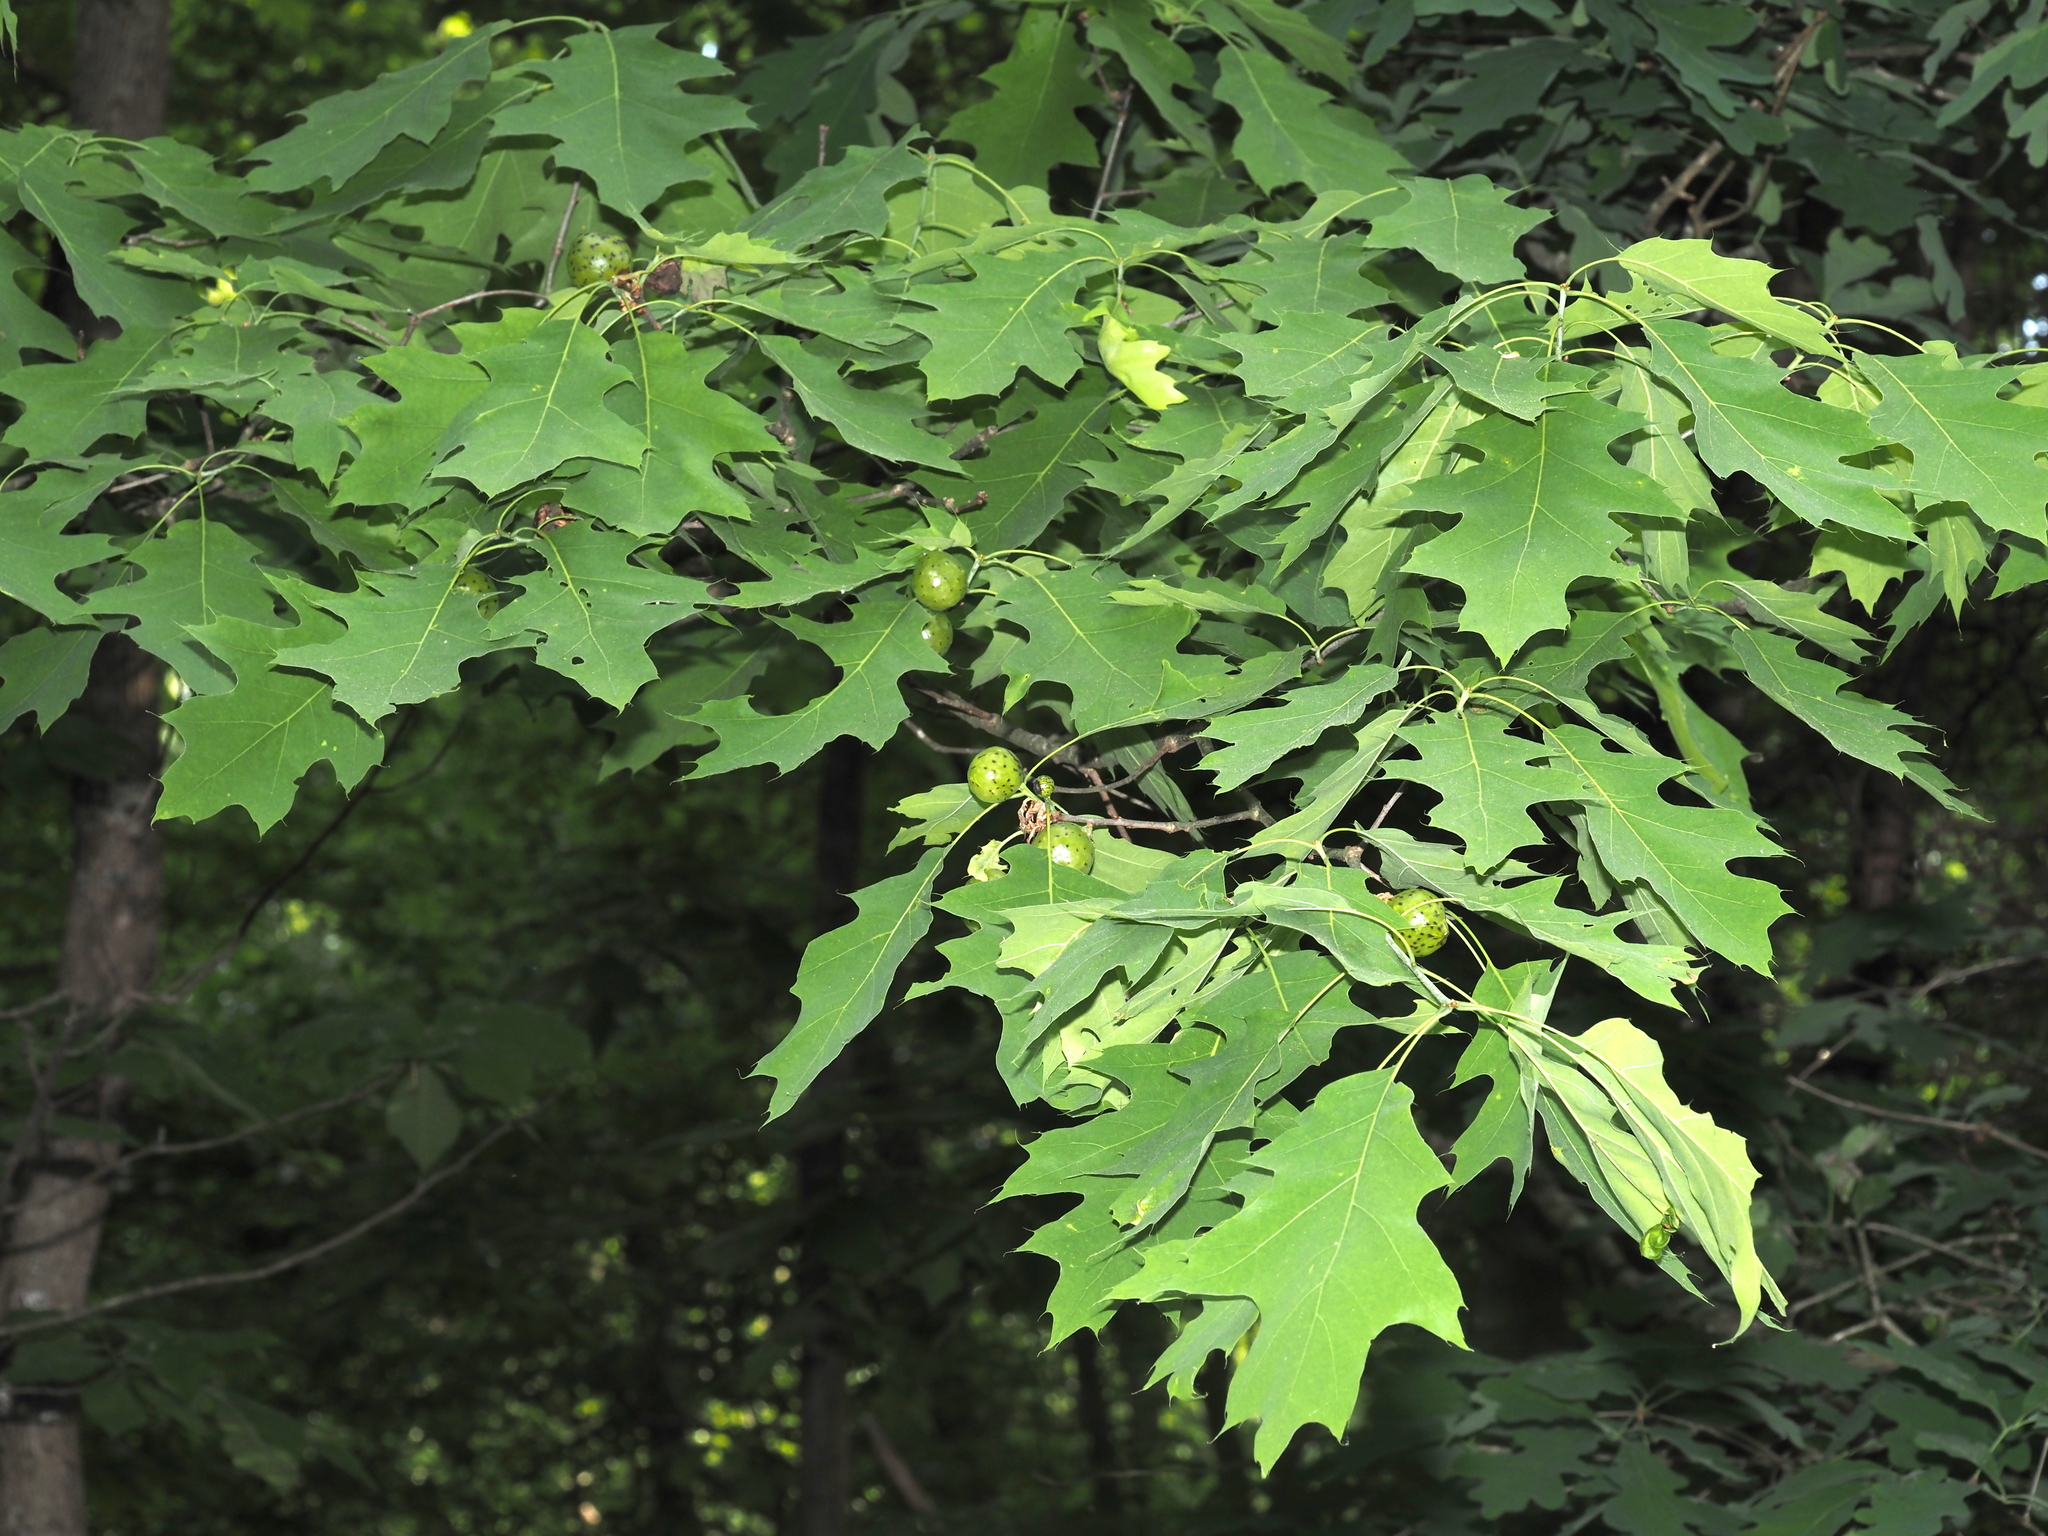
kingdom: Animalia
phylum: Arthropoda
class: Insecta
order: Hymenoptera
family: Cynipidae
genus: Amphibolips
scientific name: Amphibolips
